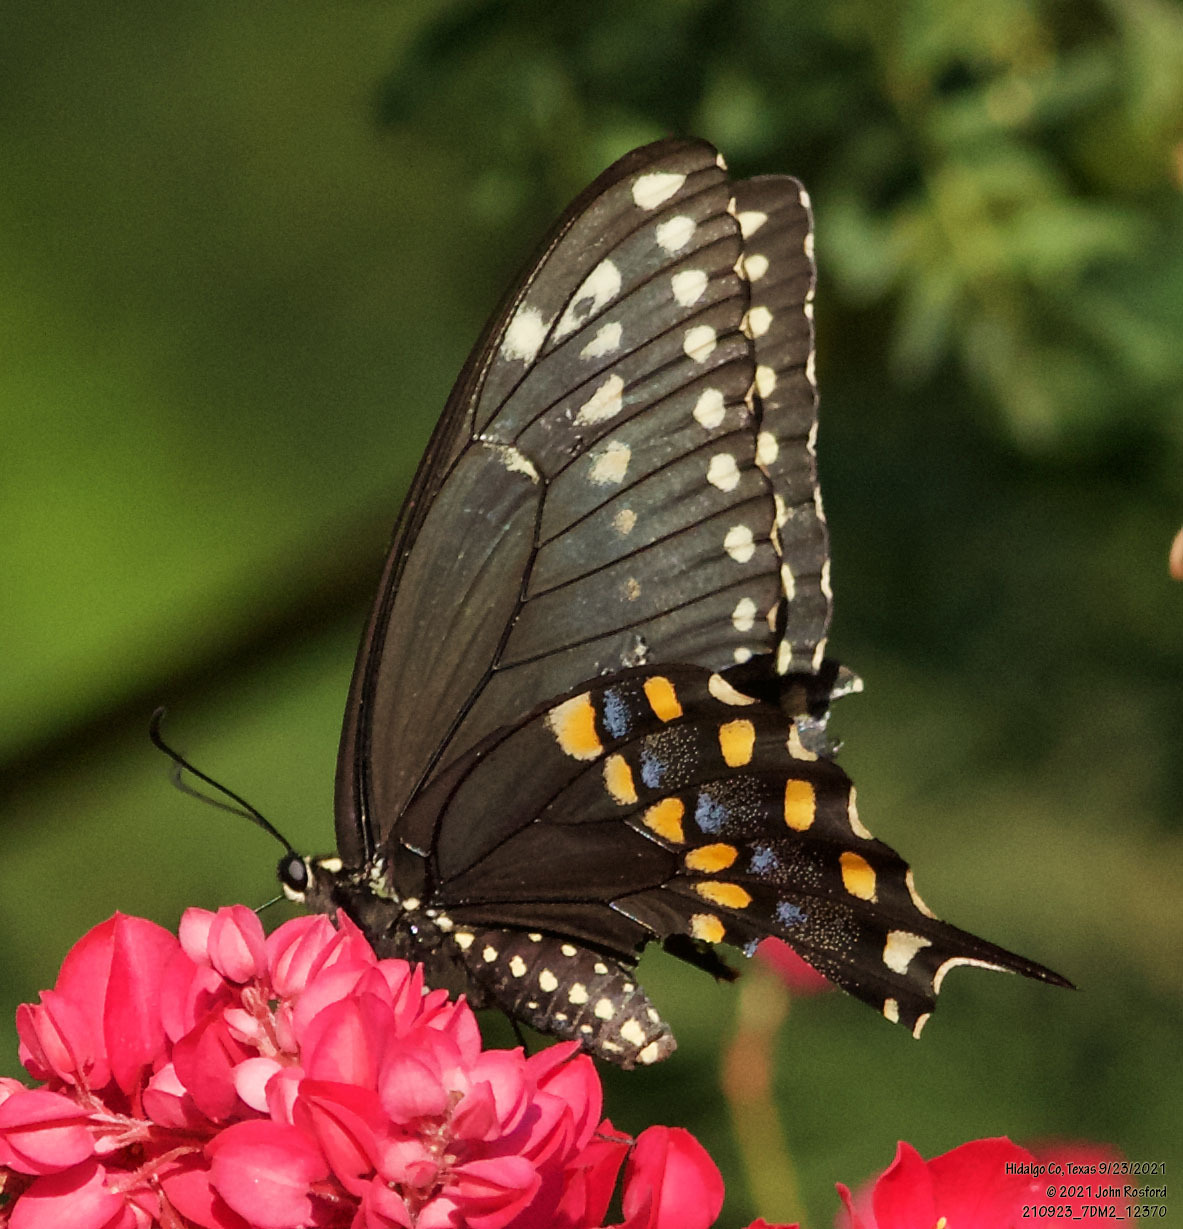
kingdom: Animalia
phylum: Arthropoda
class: Insecta
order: Lepidoptera
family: Papilionidae
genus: Papilio
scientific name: Papilio polyxenes
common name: Black swallowtail
